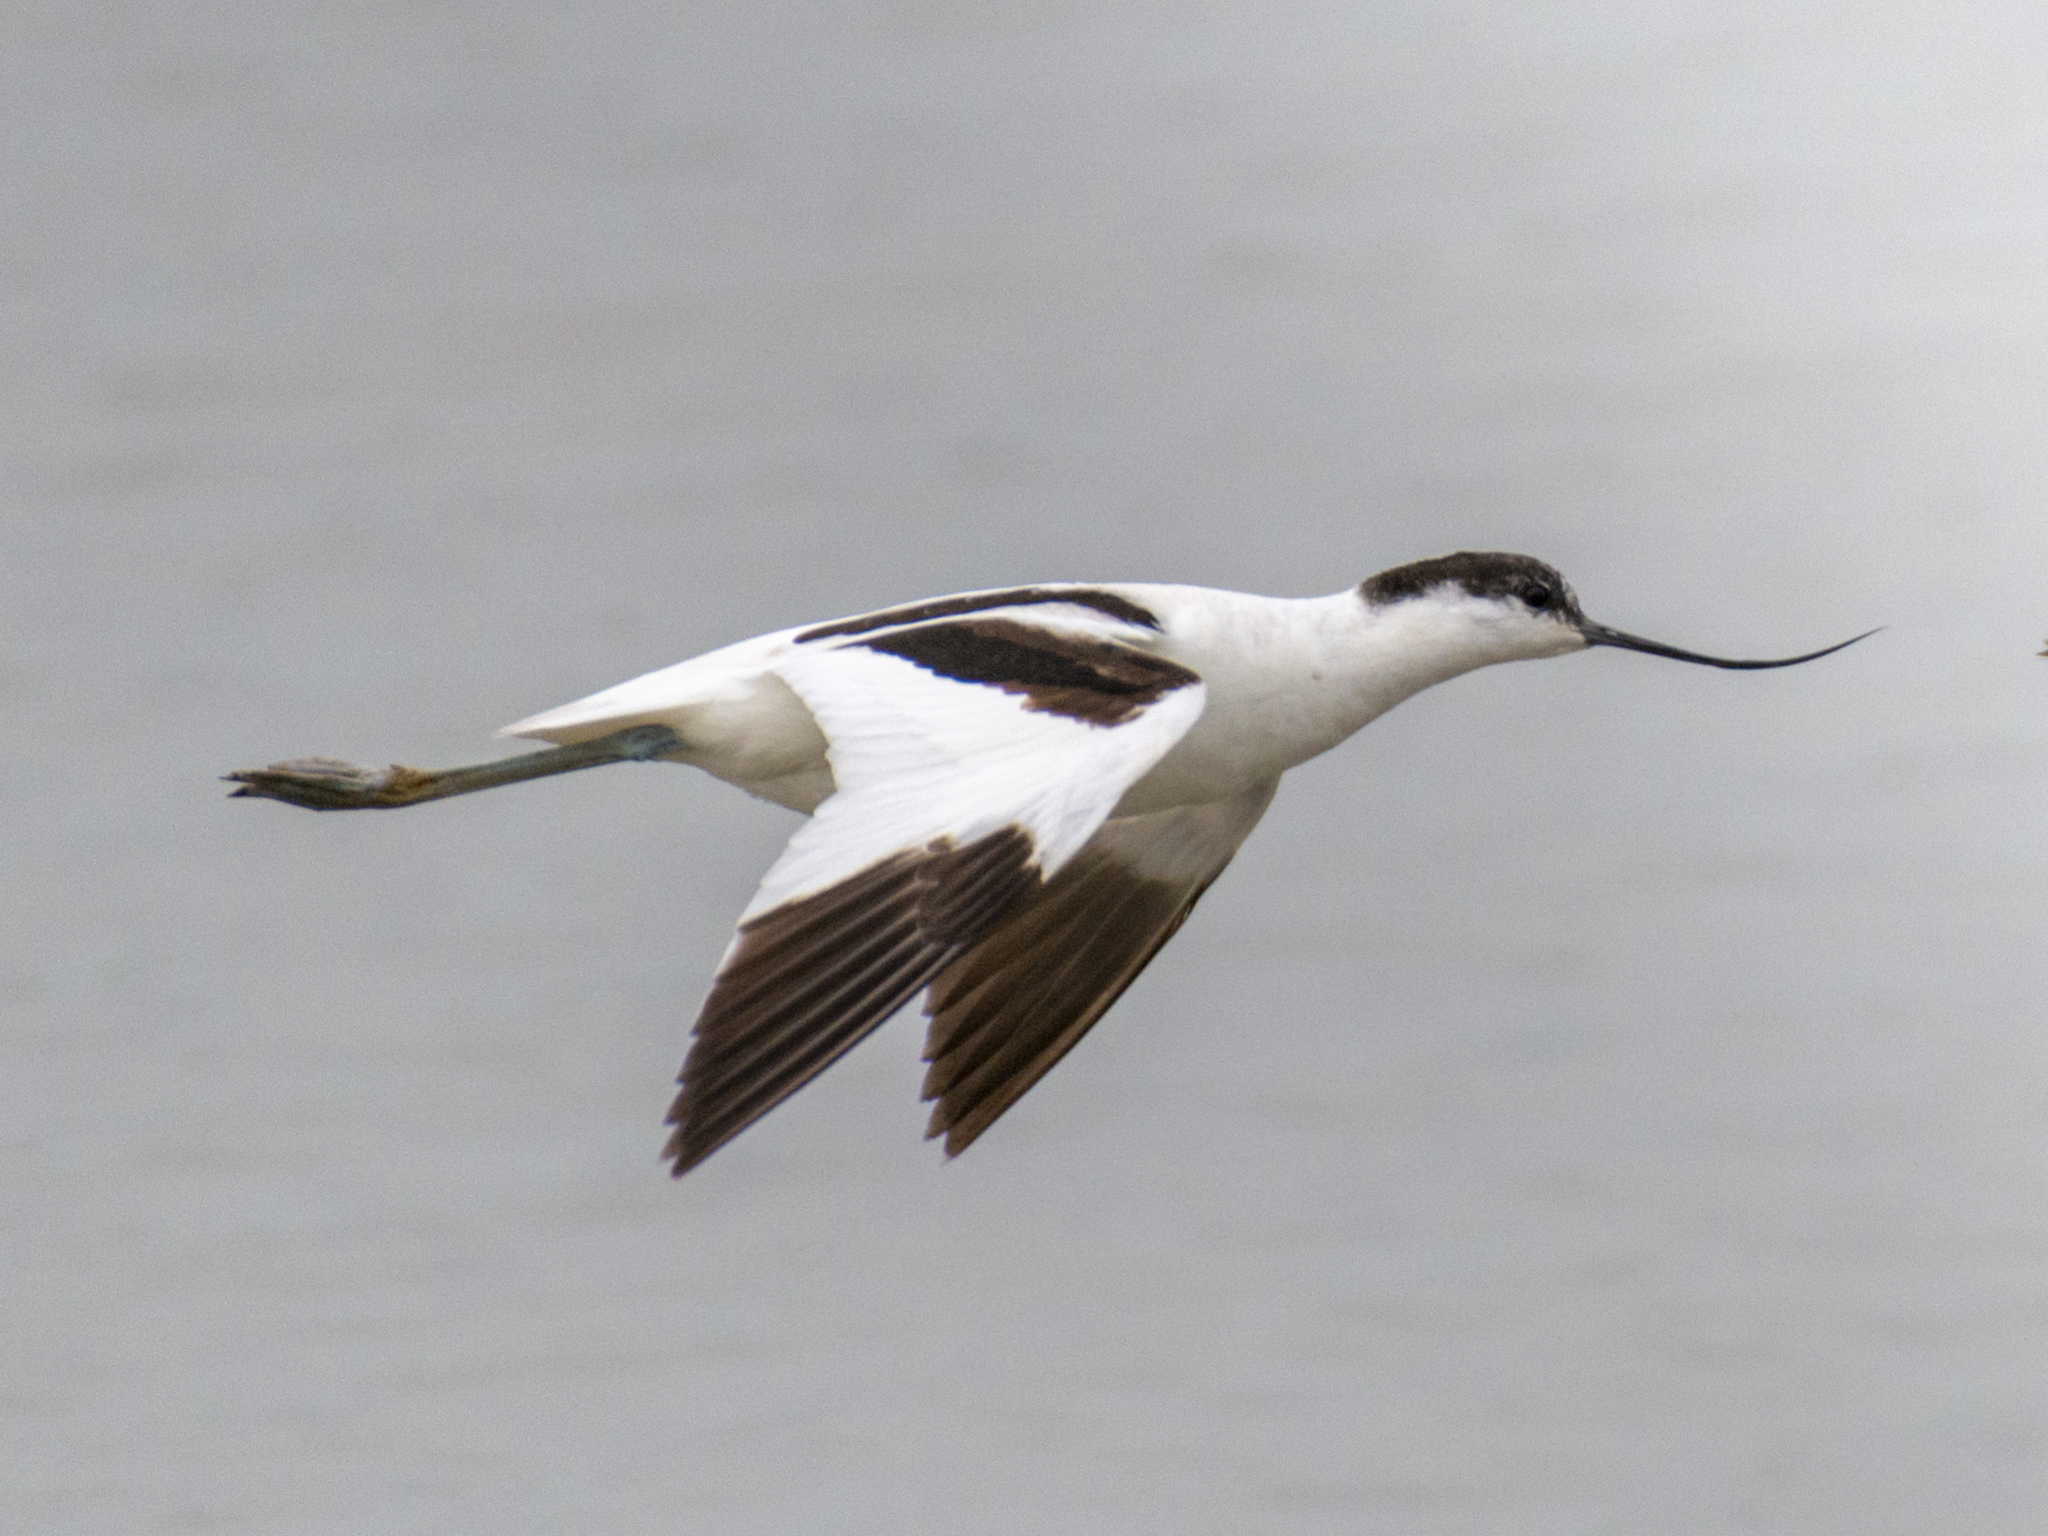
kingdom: Animalia
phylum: Chordata
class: Aves
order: Charadriiformes
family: Recurvirostridae
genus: Recurvirostra
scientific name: Recurvirostra avosetta
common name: Pied avocet
